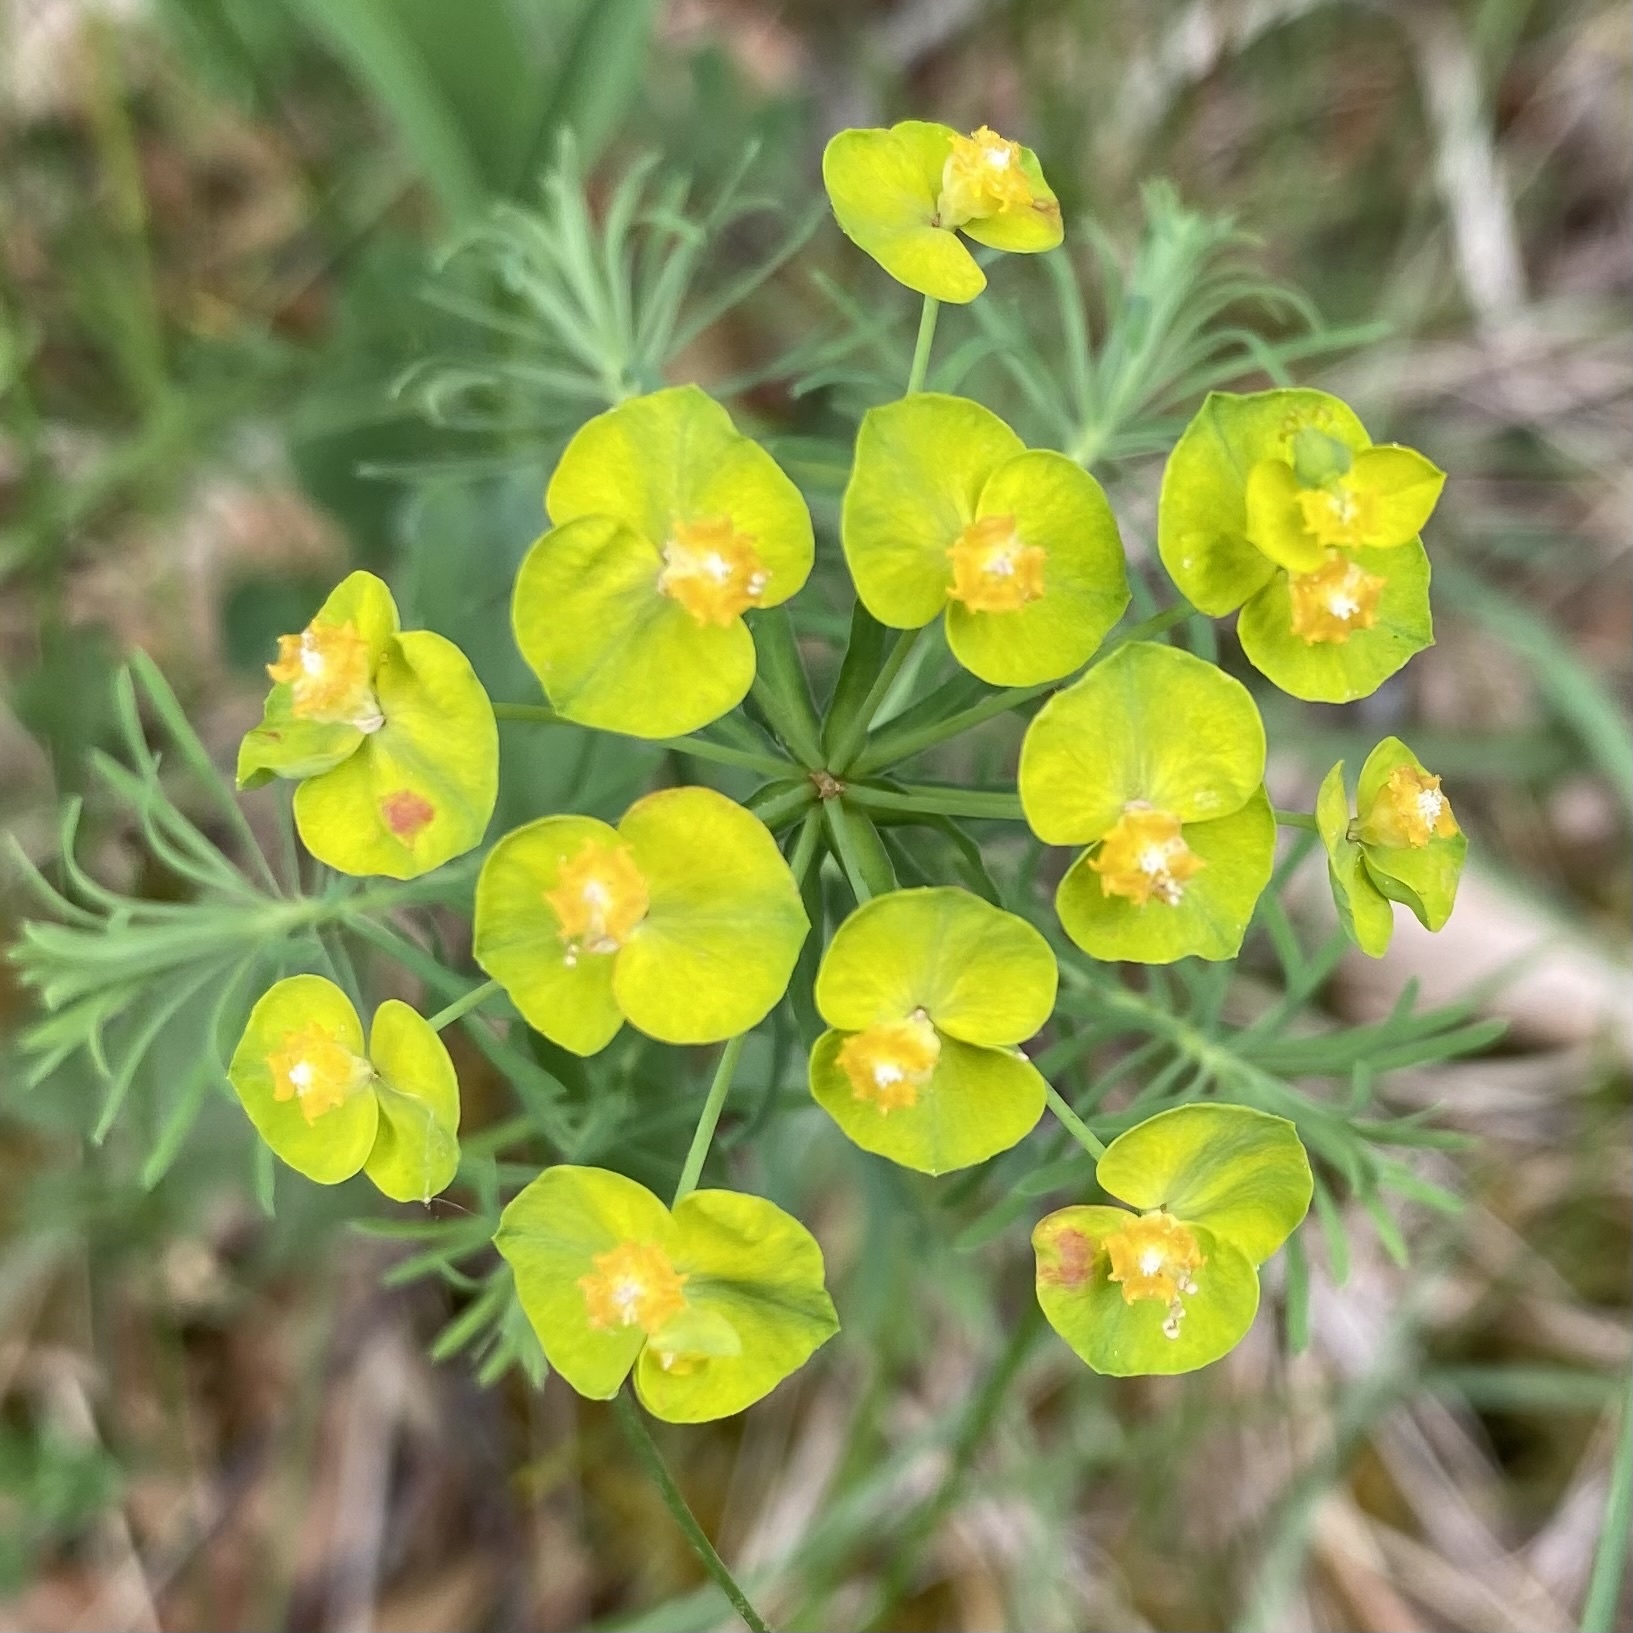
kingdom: Plantae
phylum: Tracheophyta
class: Magnoliopsida
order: Malpighiales
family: Euphorbiaceae
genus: Euphorbia
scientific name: Euphorbia cyparissias
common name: Cypress spurge
